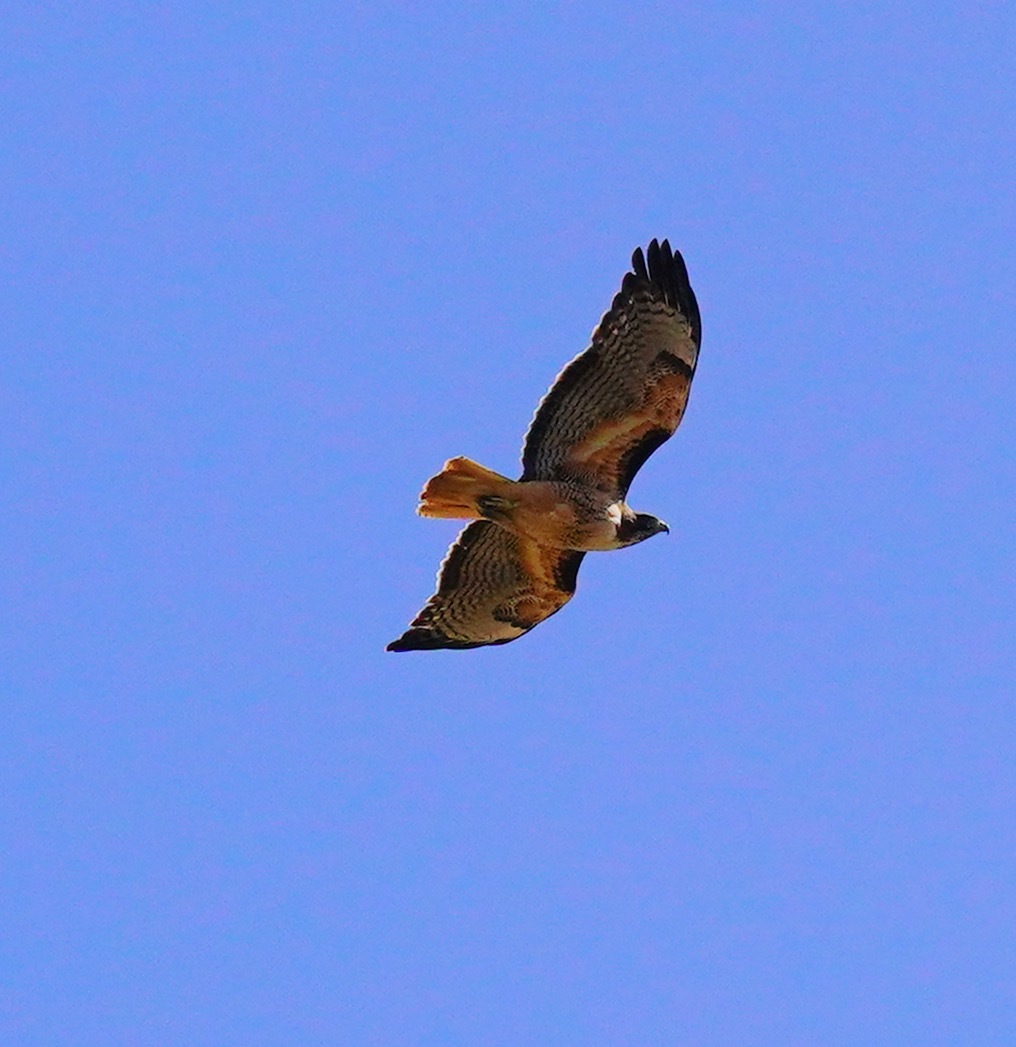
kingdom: Animalia
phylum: Chordata
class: Aves
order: Accipitriformes
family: Accipitridae
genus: Buteo
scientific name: Buteo jamaicensis
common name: Red-tailed hawk
